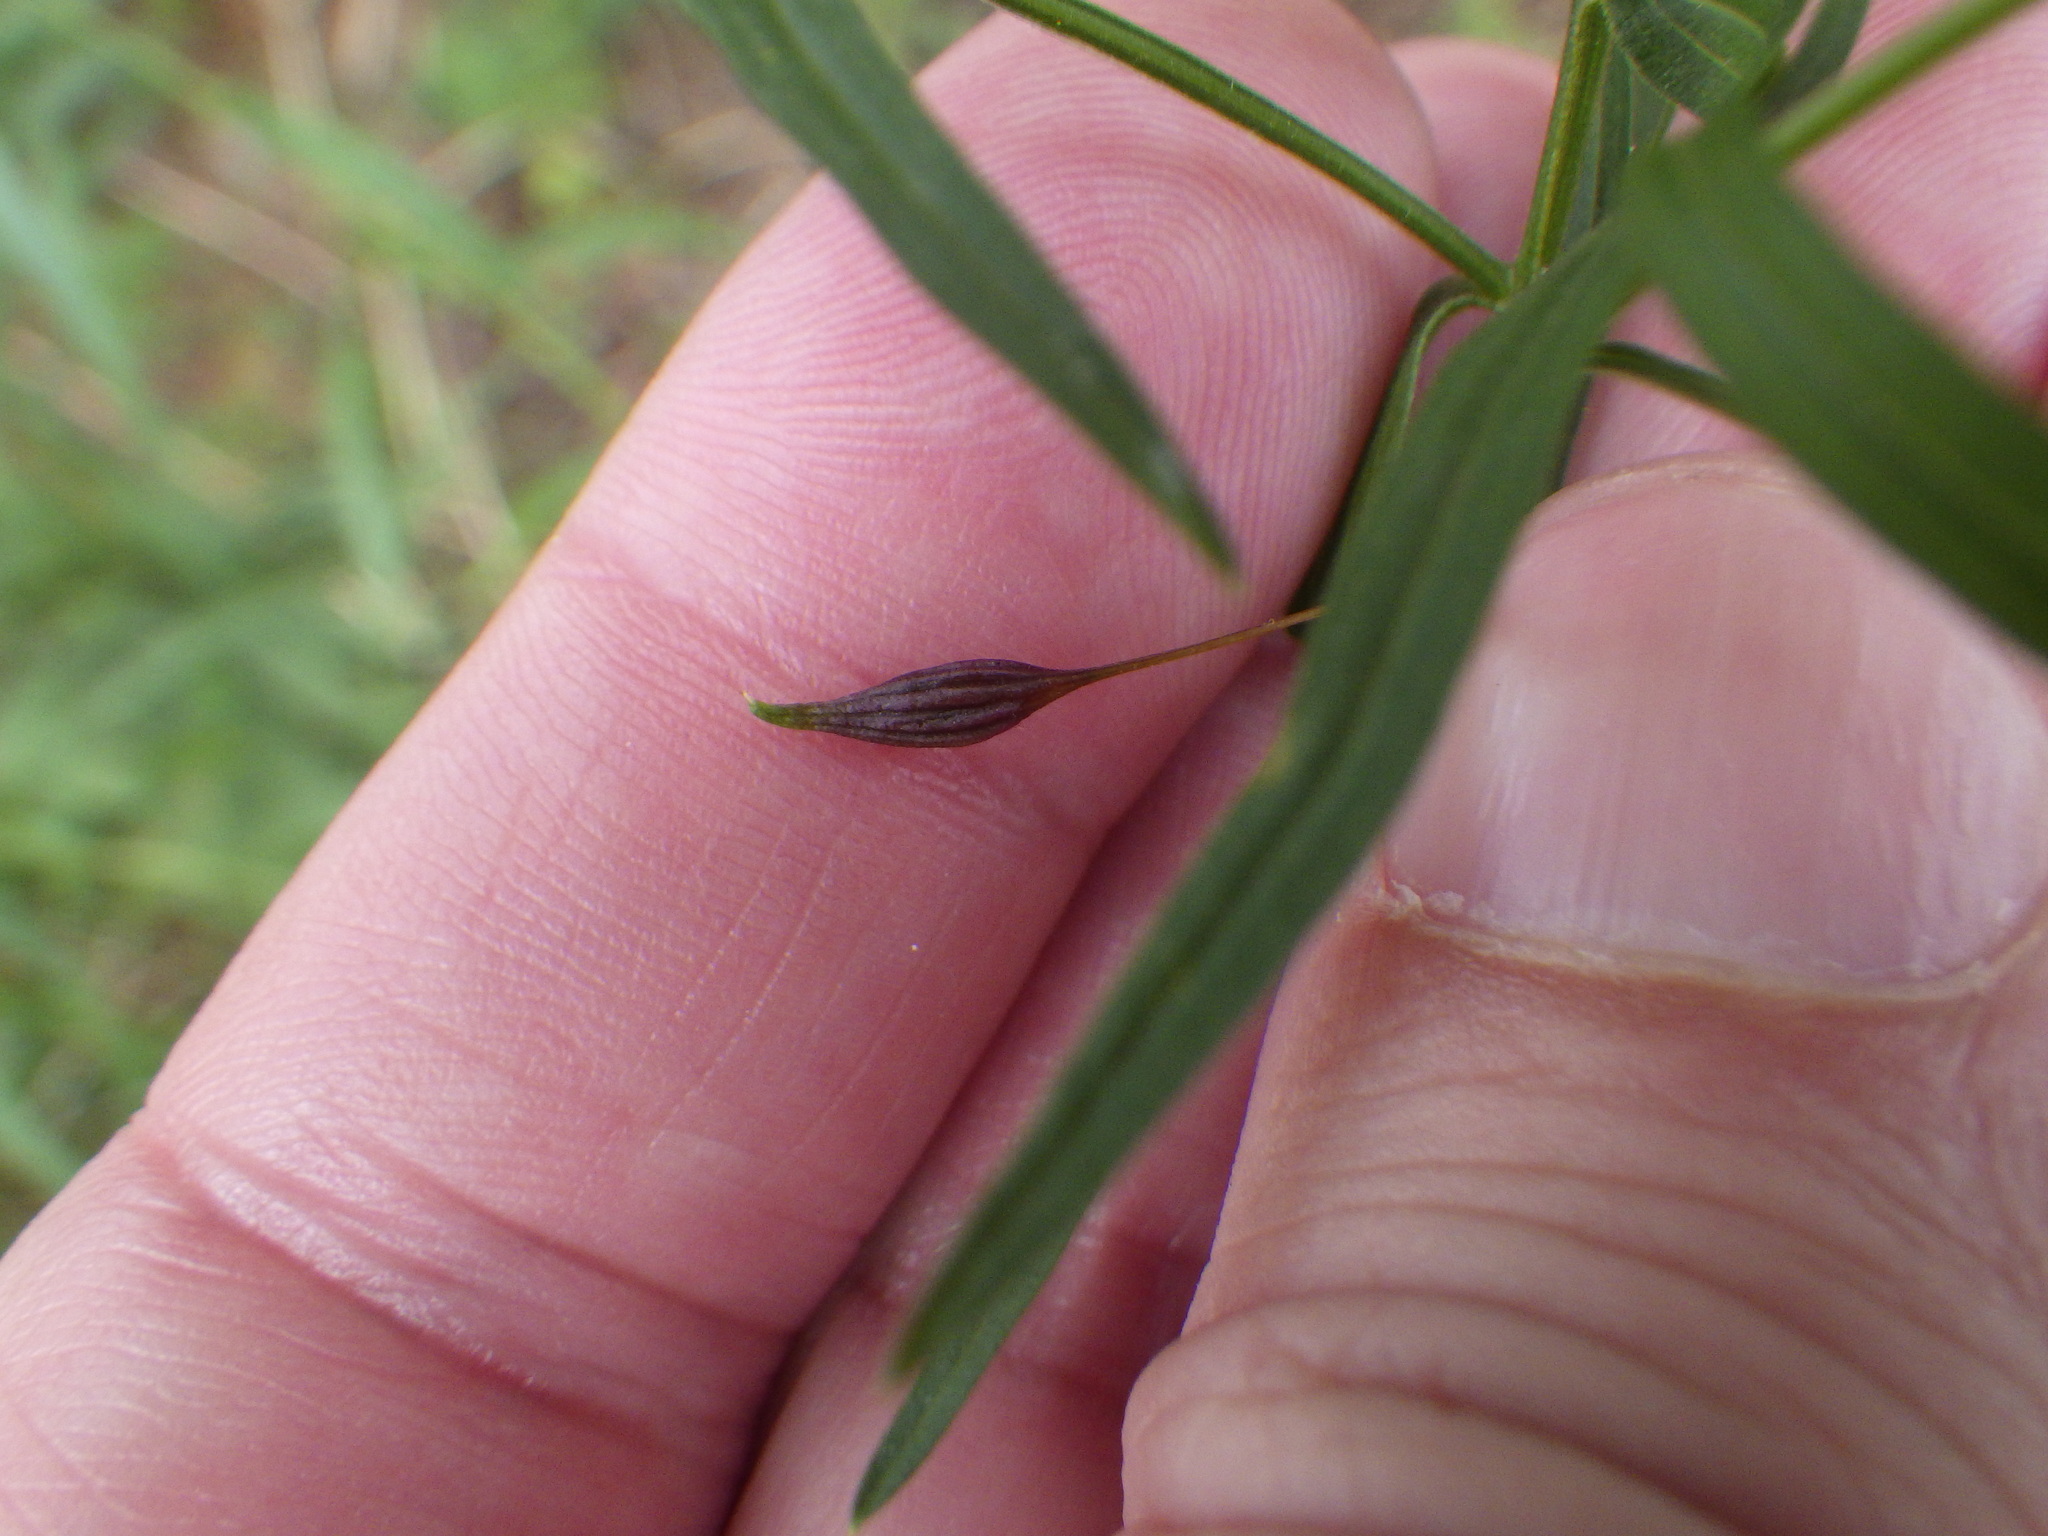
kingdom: Animalia
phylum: Arthropoda
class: Insecta
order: Diptera
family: Cecidomyiidae
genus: Rhopalomyia
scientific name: Rhopalomyia pedicellata
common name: Goldentop pedicellate gall midge
